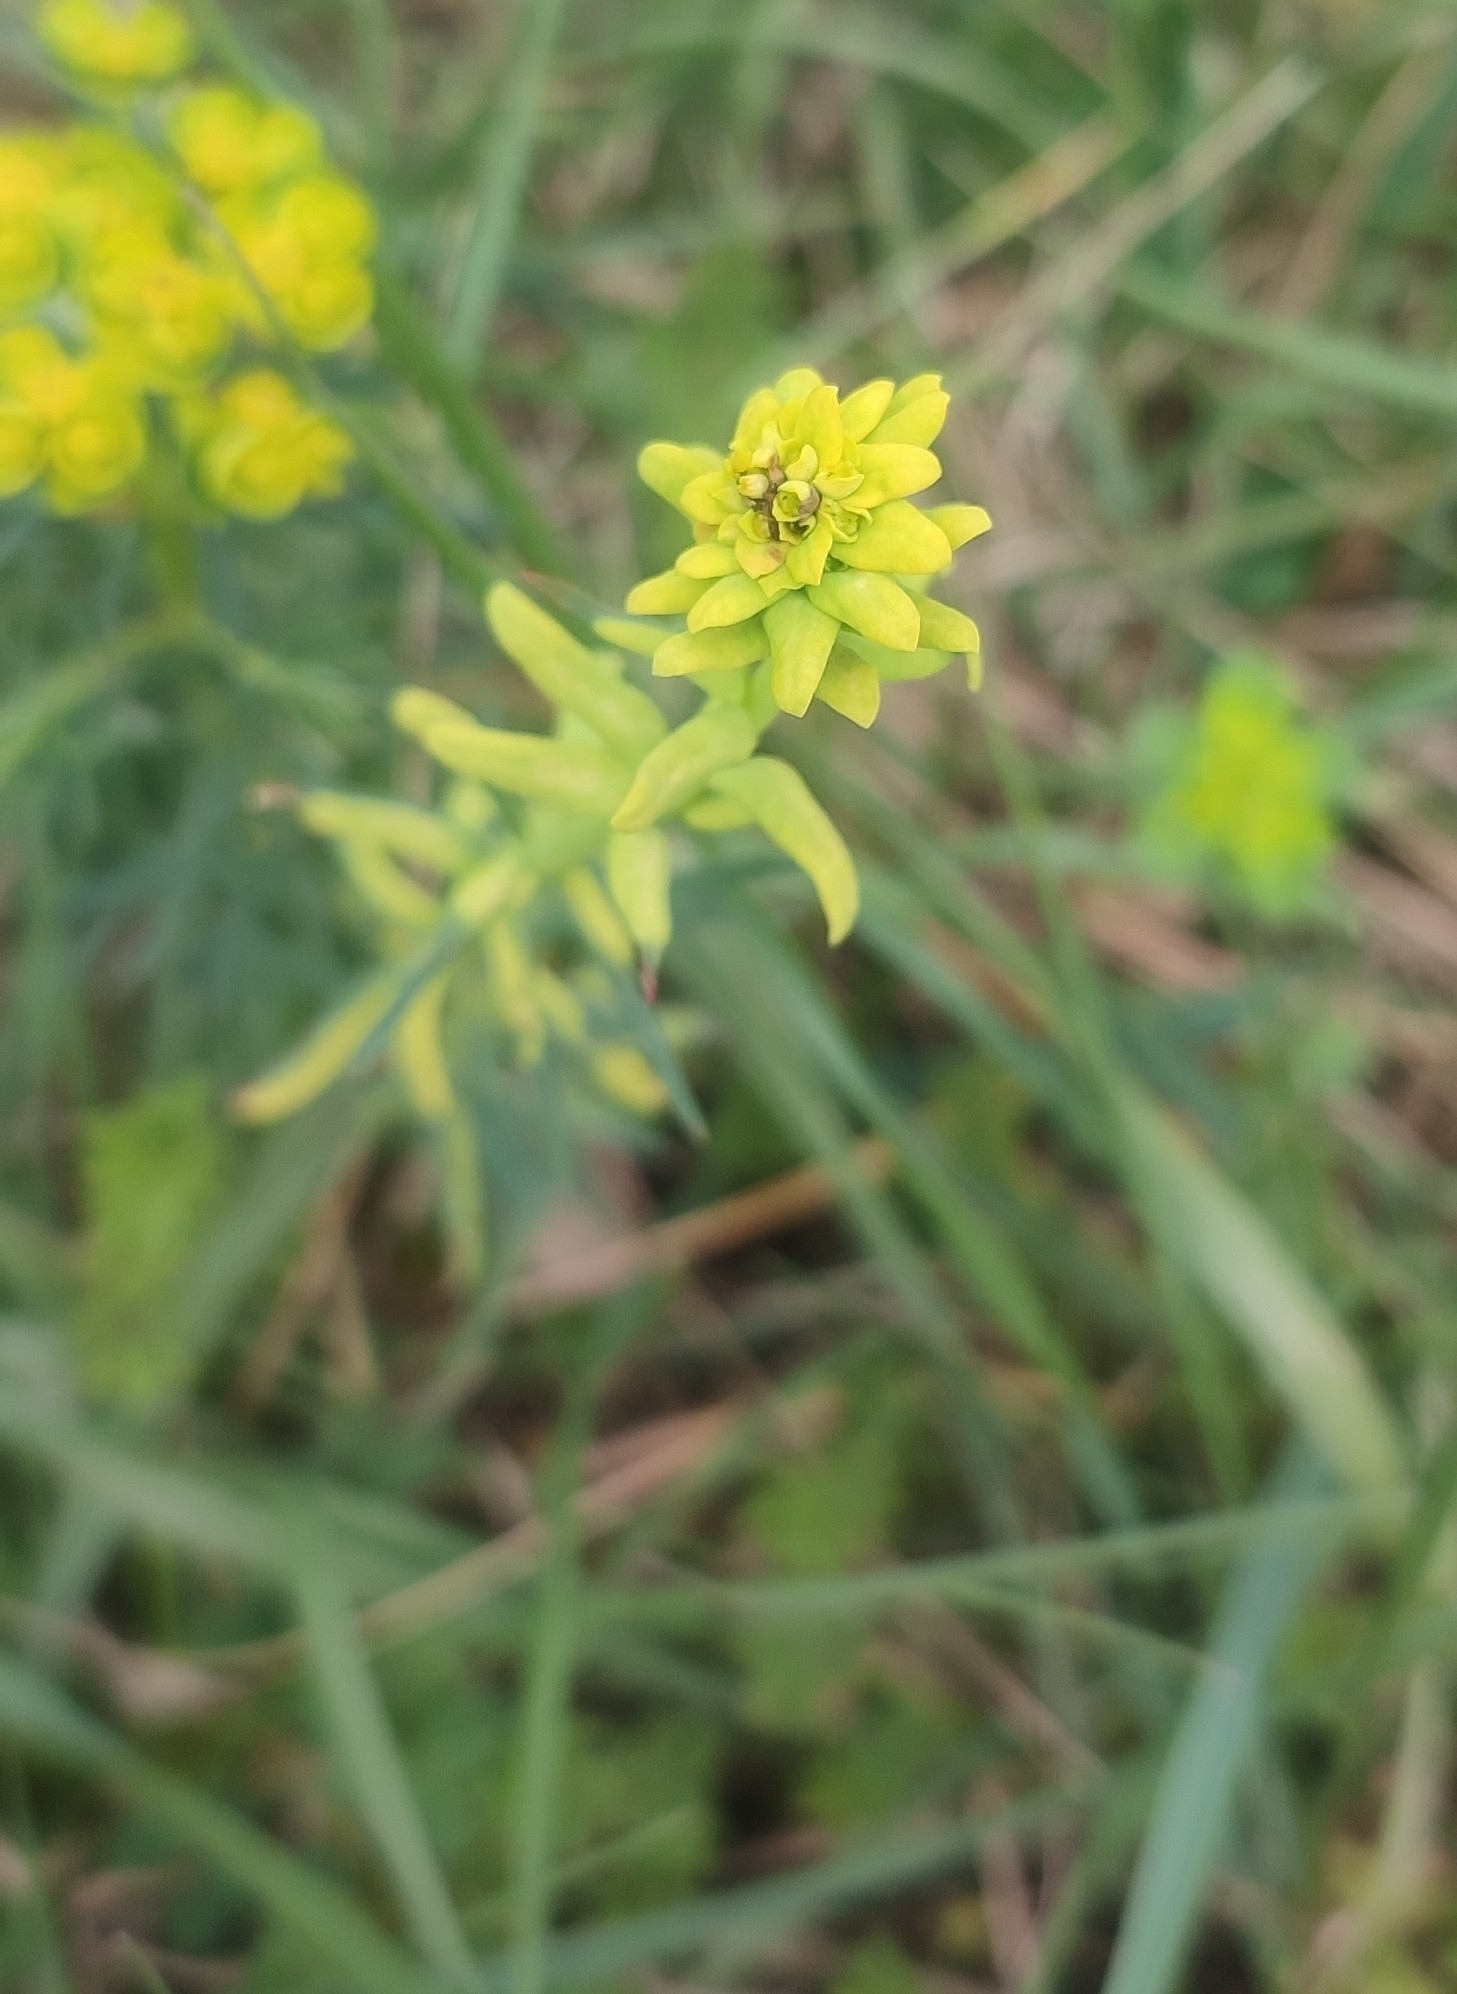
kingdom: Plantae
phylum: Tracheophyta
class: Magnoliopsida
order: Malpighiales
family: Euphorbiaceae
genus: Euphorbia
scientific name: Euphorbia cyparissias
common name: Cypress spurge
